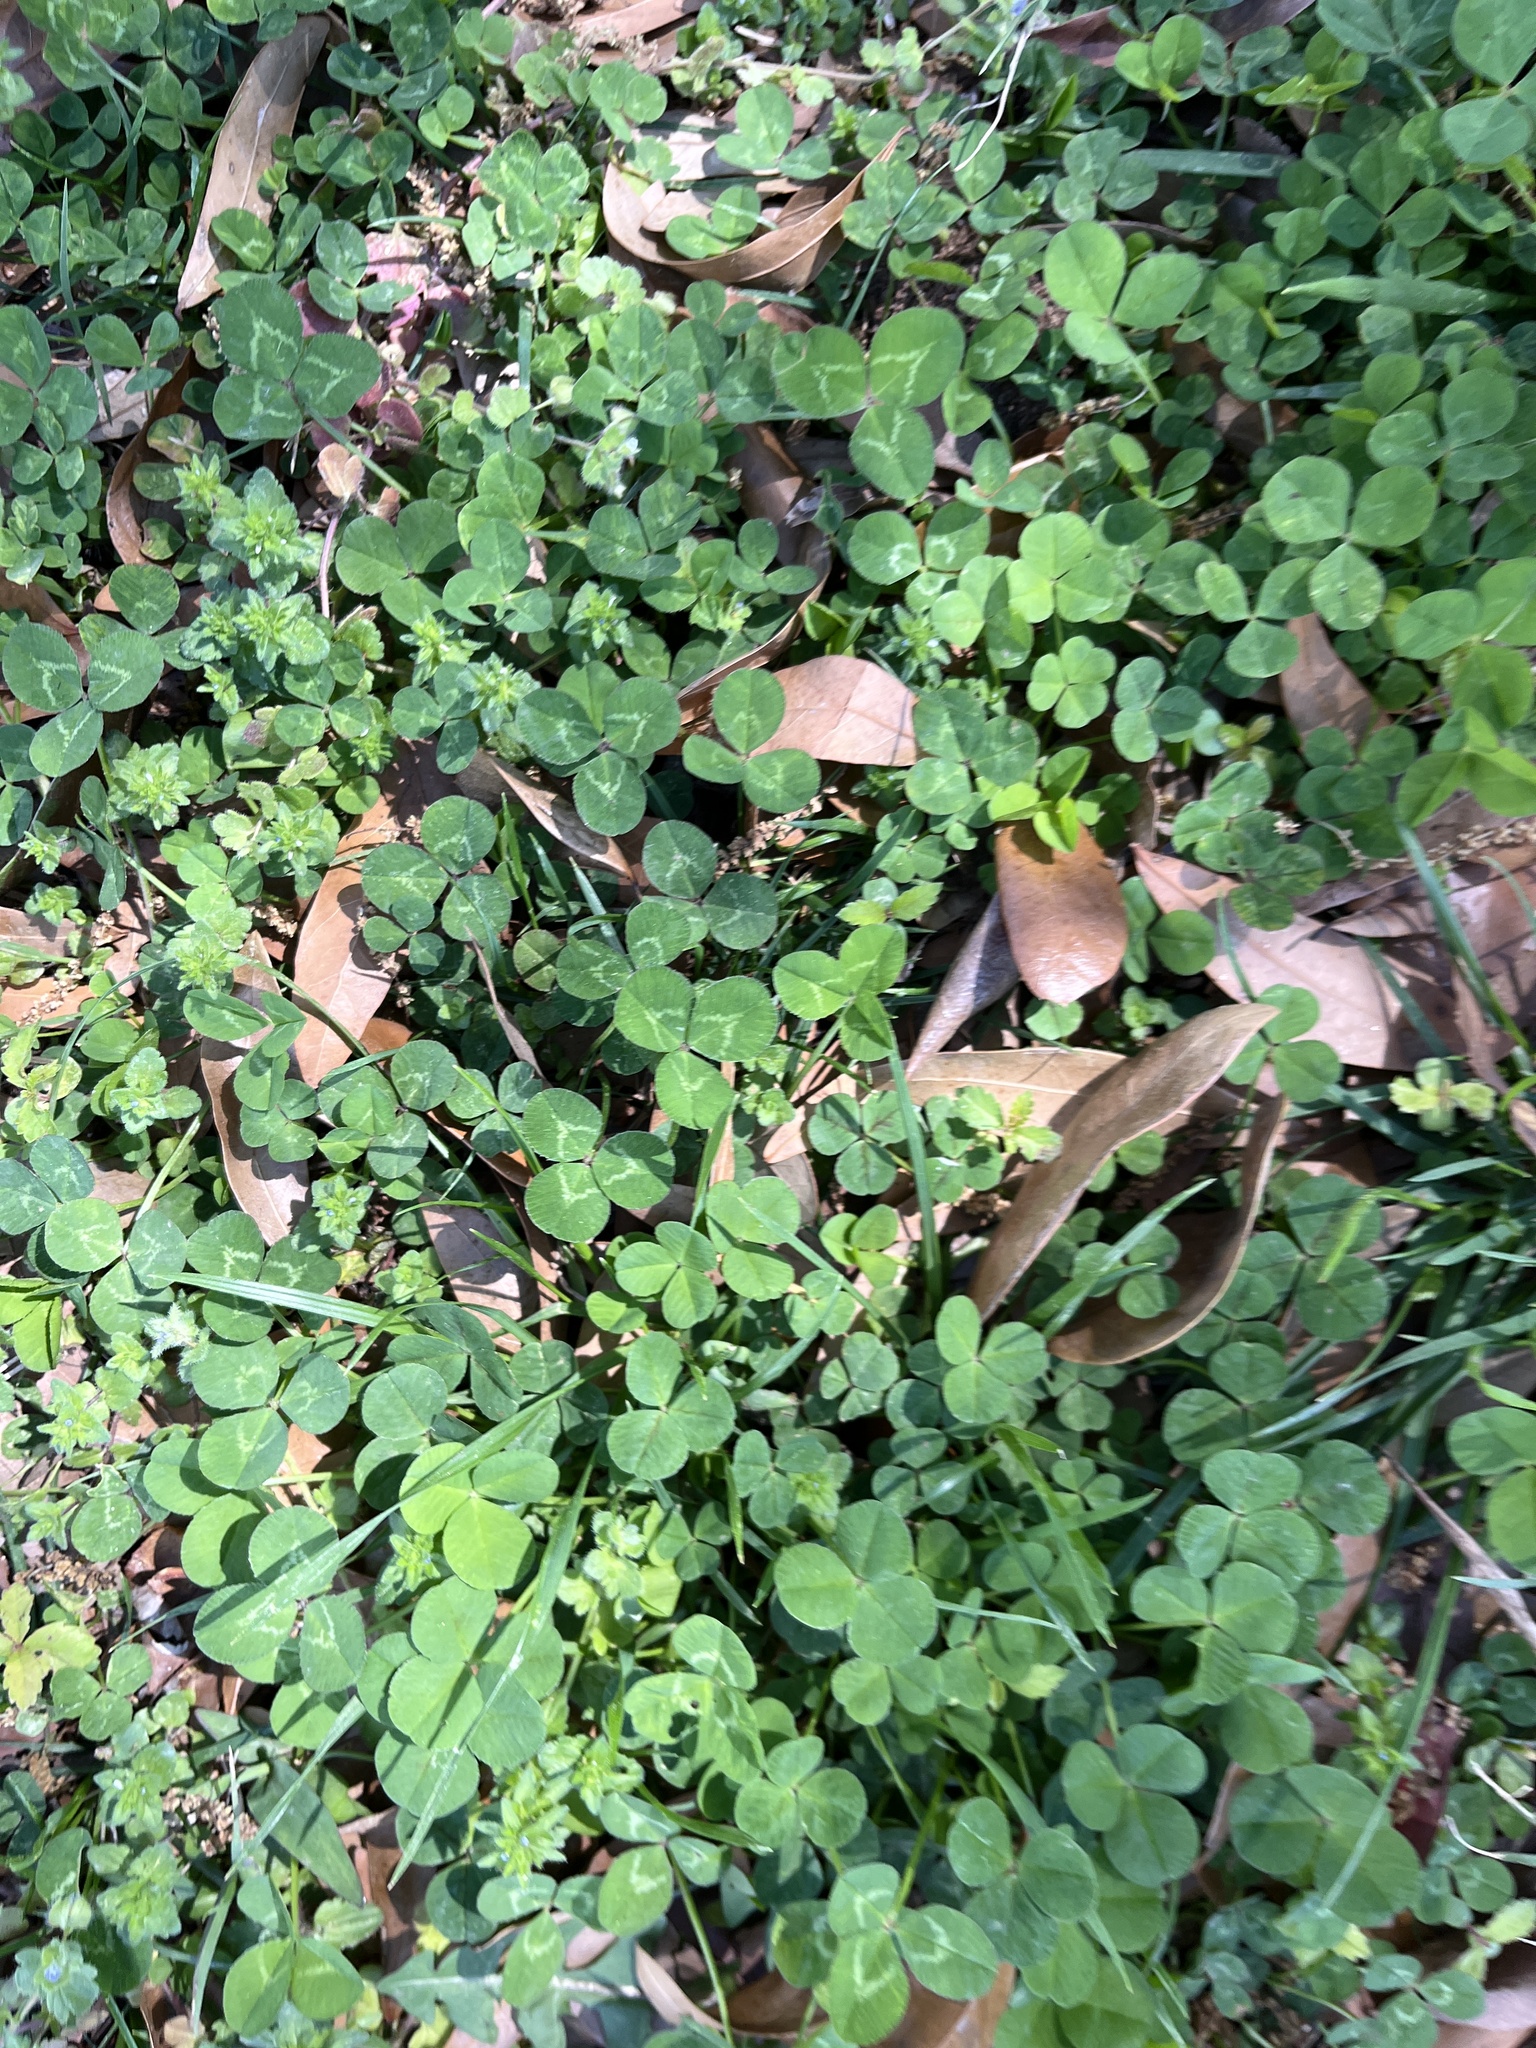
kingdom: Plantae
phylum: Tracheophyta
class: Magnoliopsida
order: Fabales
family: Fabaceae
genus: Trifolium
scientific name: Trifolium repens
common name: White clover
